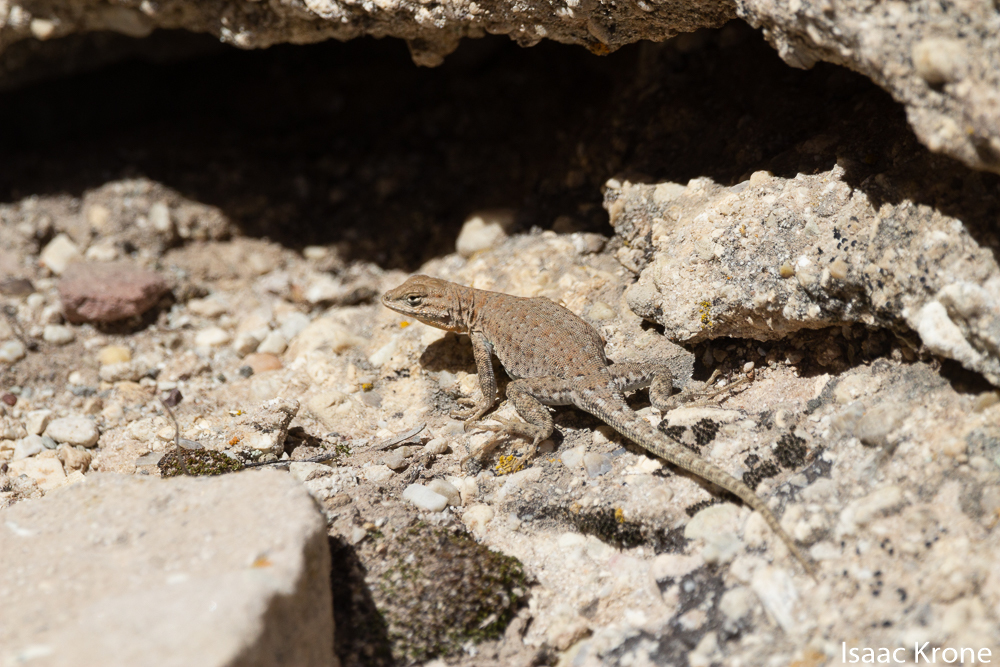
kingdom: Animalia
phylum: Chordata
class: Squamata
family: Phrynosomatidae
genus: Uta
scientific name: Uta stansburiana
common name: Side-blotched lizard
